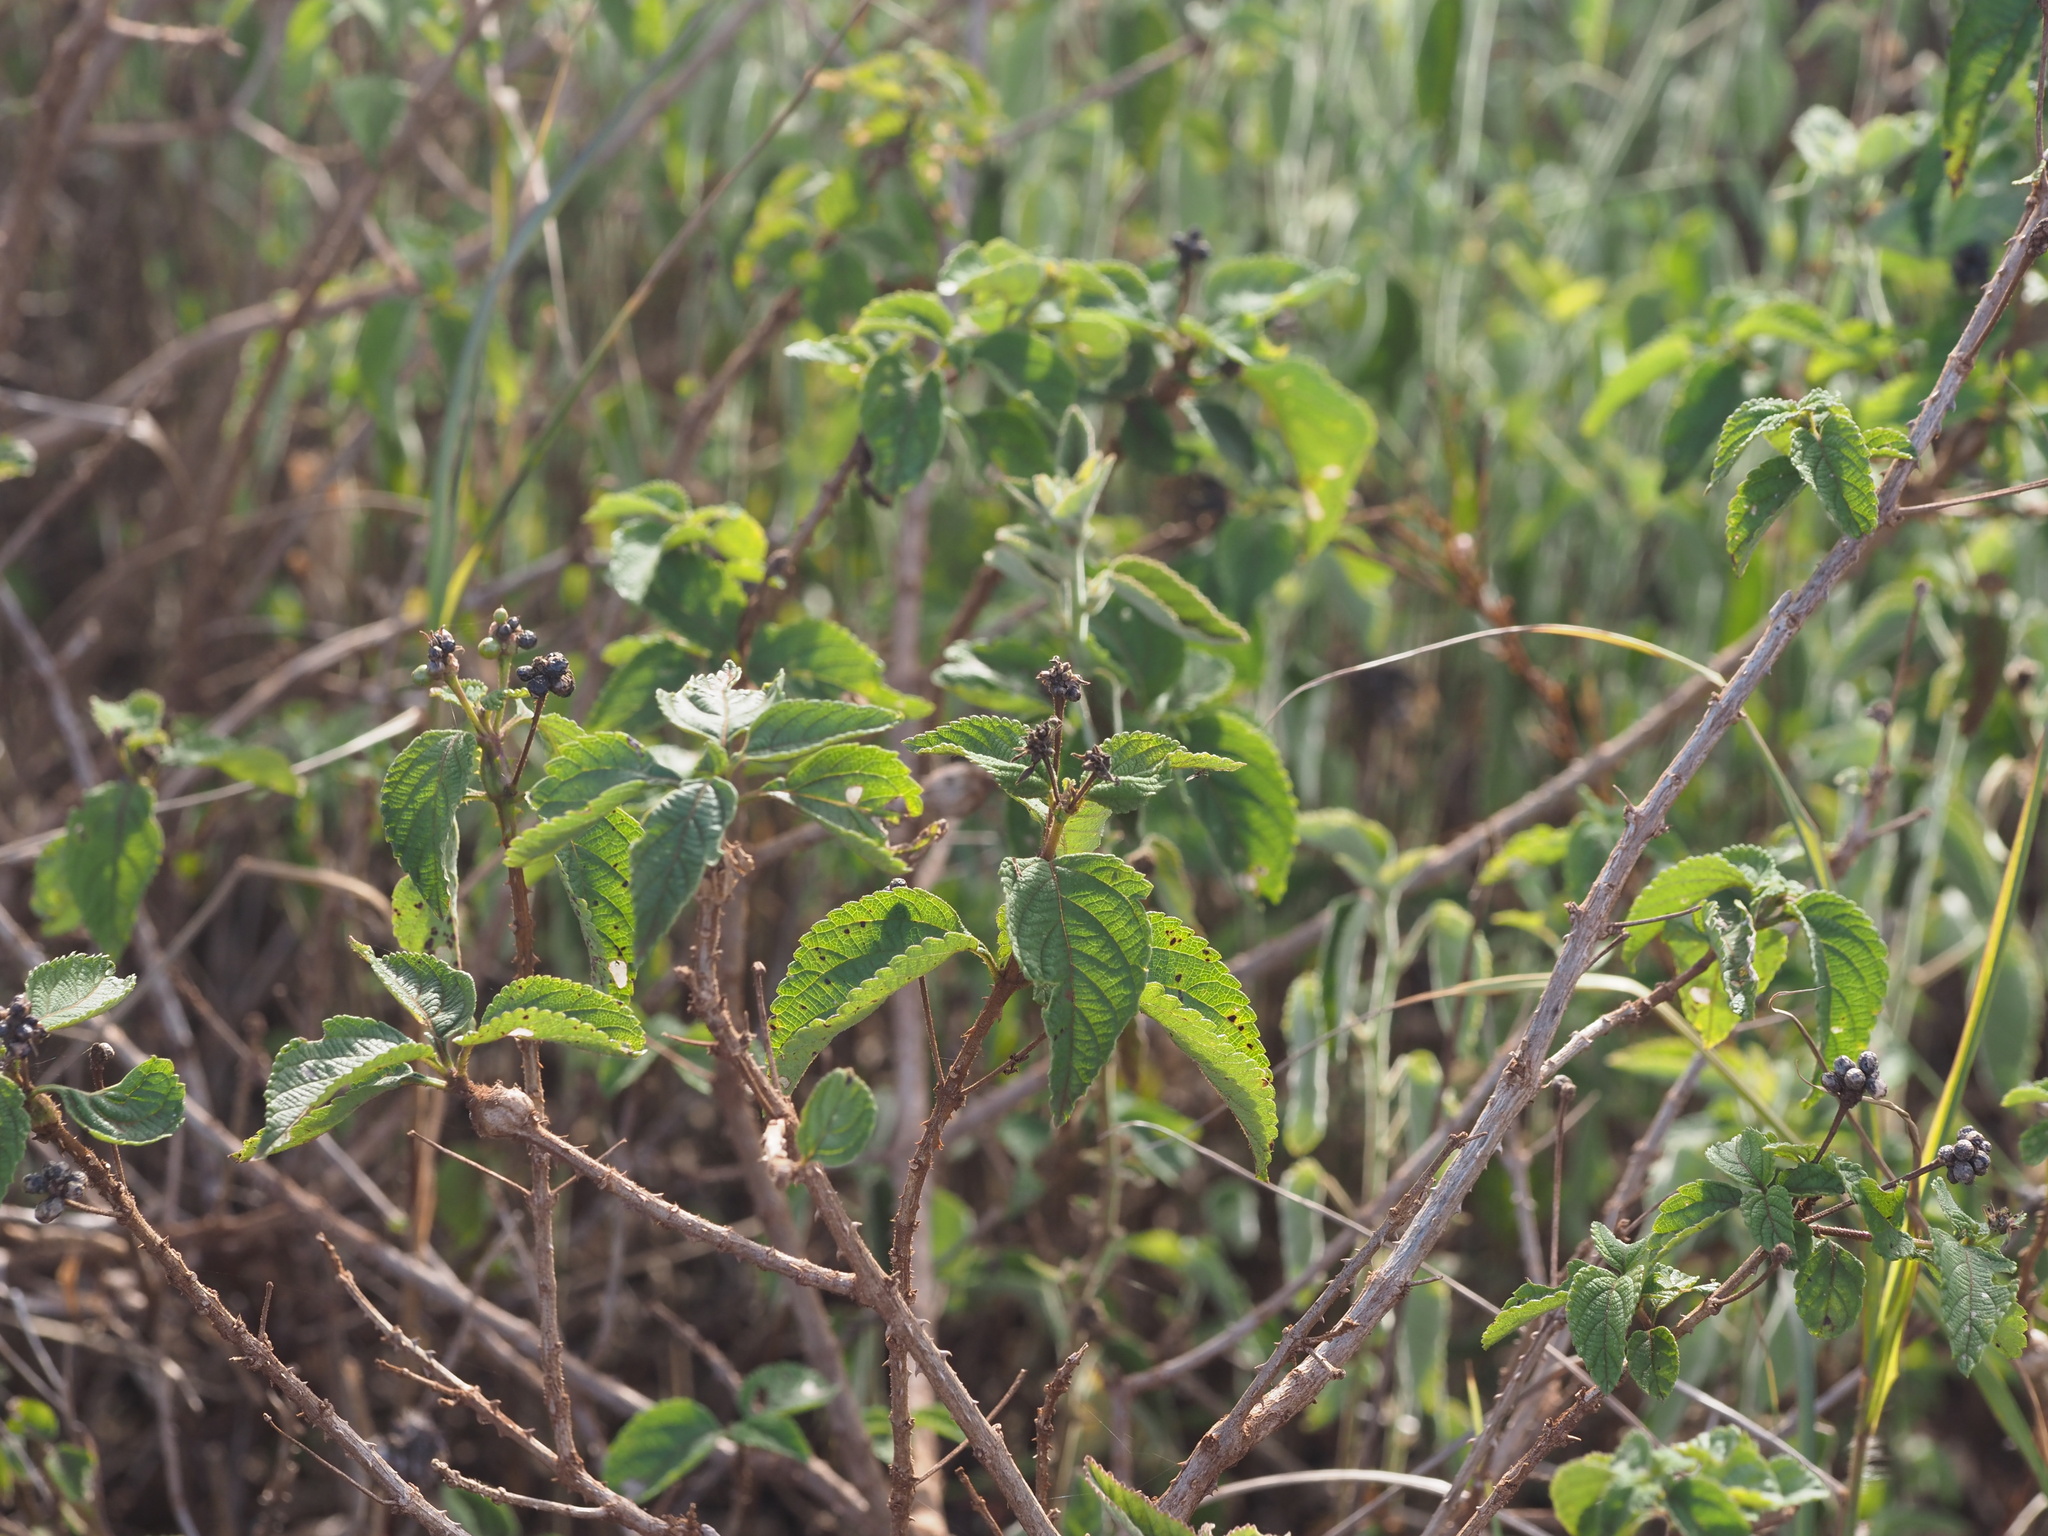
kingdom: Plantae
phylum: Tracheophyta
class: Magnoliopsida
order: Lamiales
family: Verbenaceae
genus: Lantana
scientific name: Lantana camara
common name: Lantana
